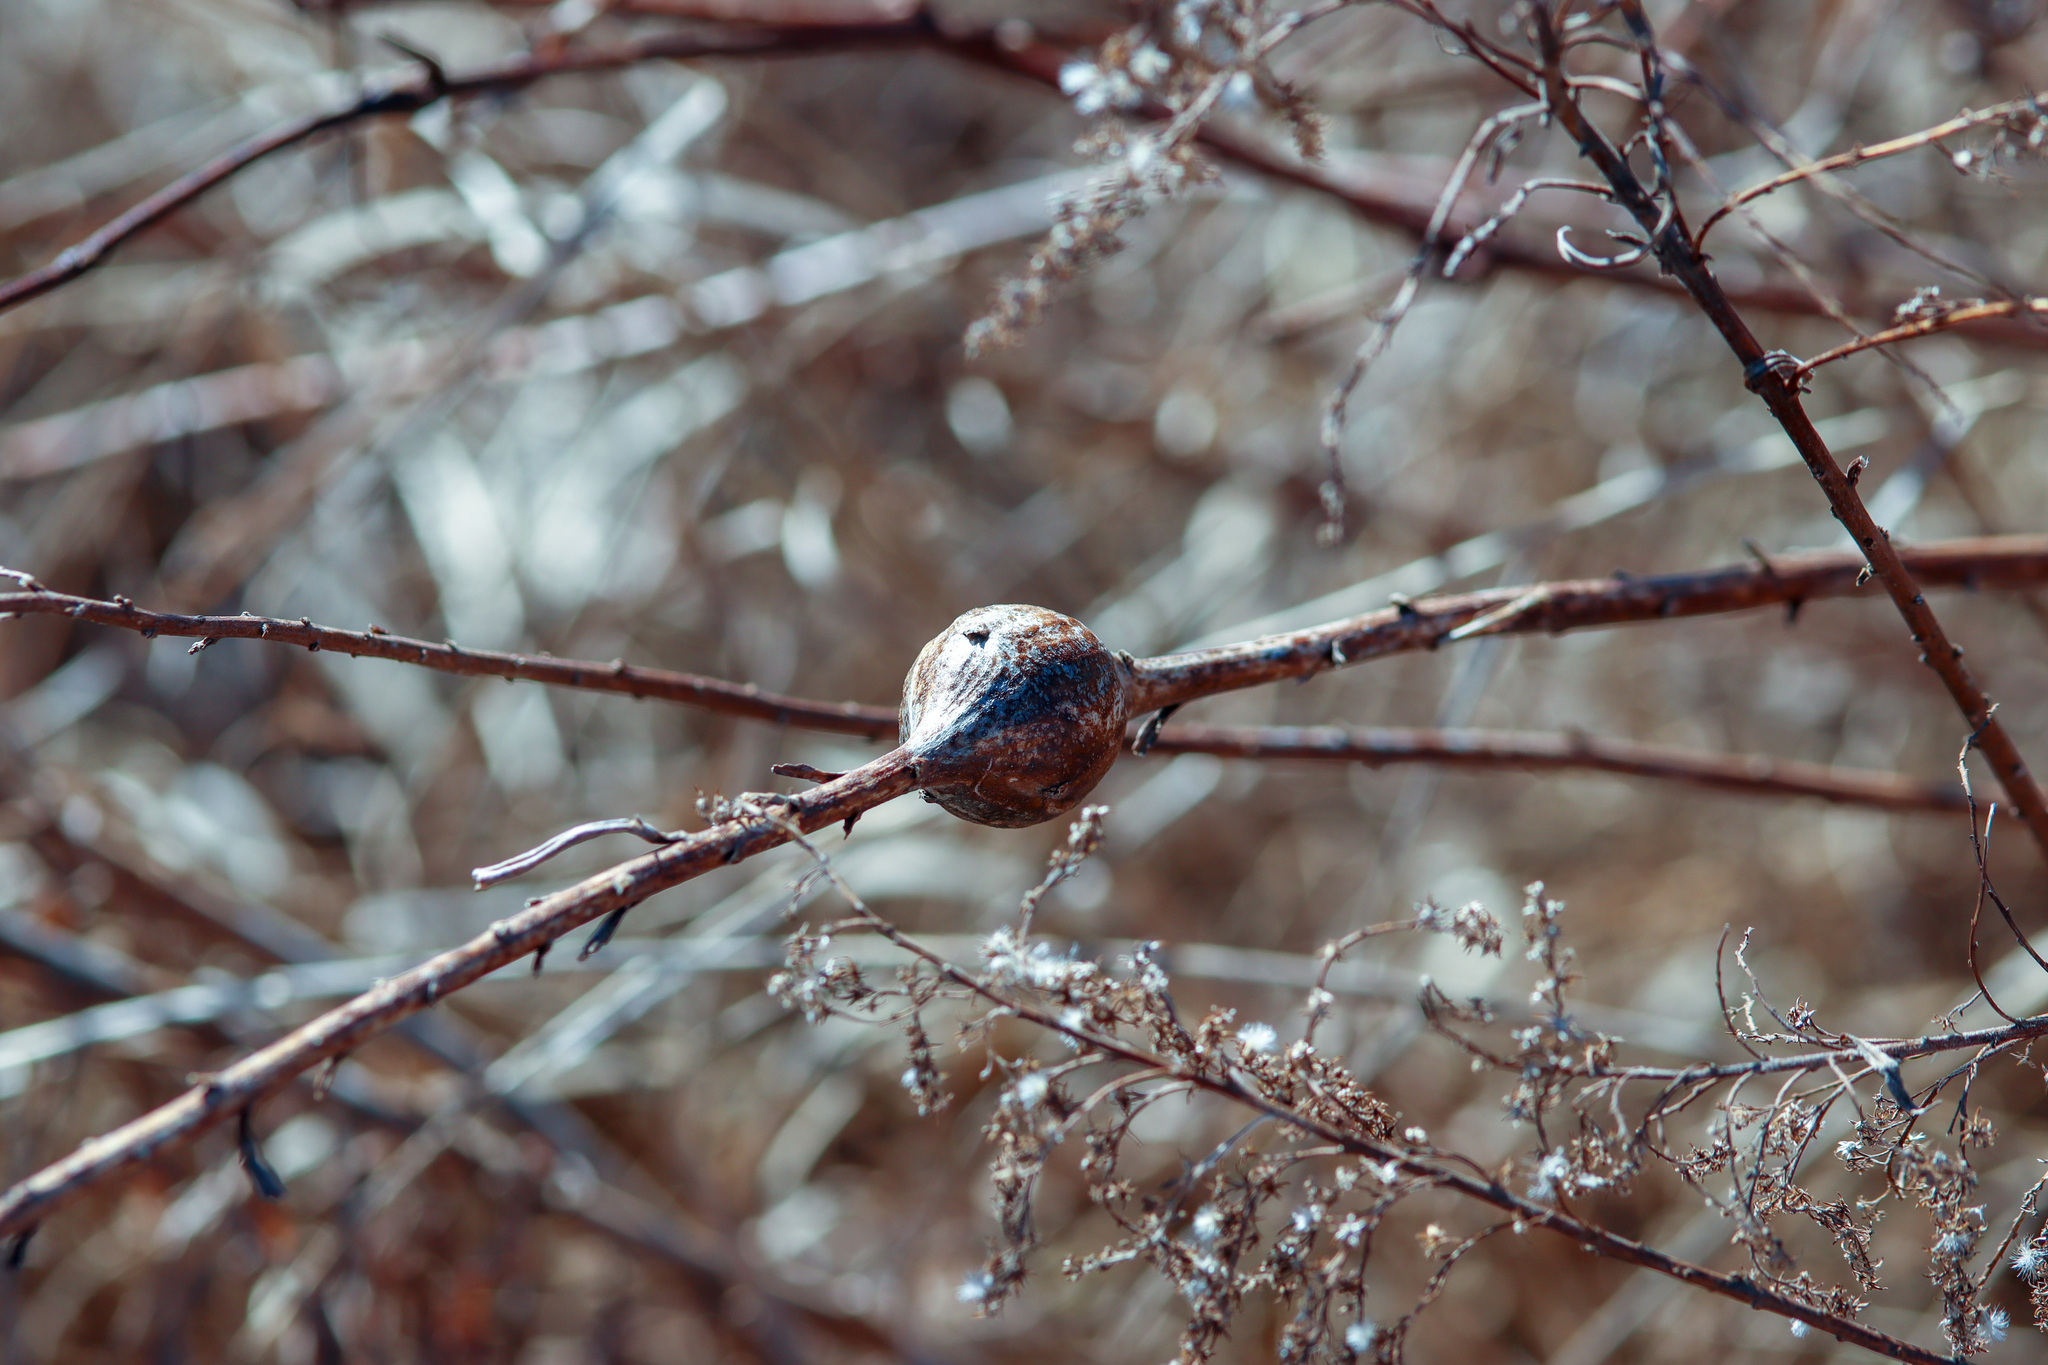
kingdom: Animalia
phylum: Arthropoda
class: Insecta
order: Diptera
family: Tephritidae
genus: Eurosta
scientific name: Eurosta solidaginis
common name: Goldenrod gall fly
